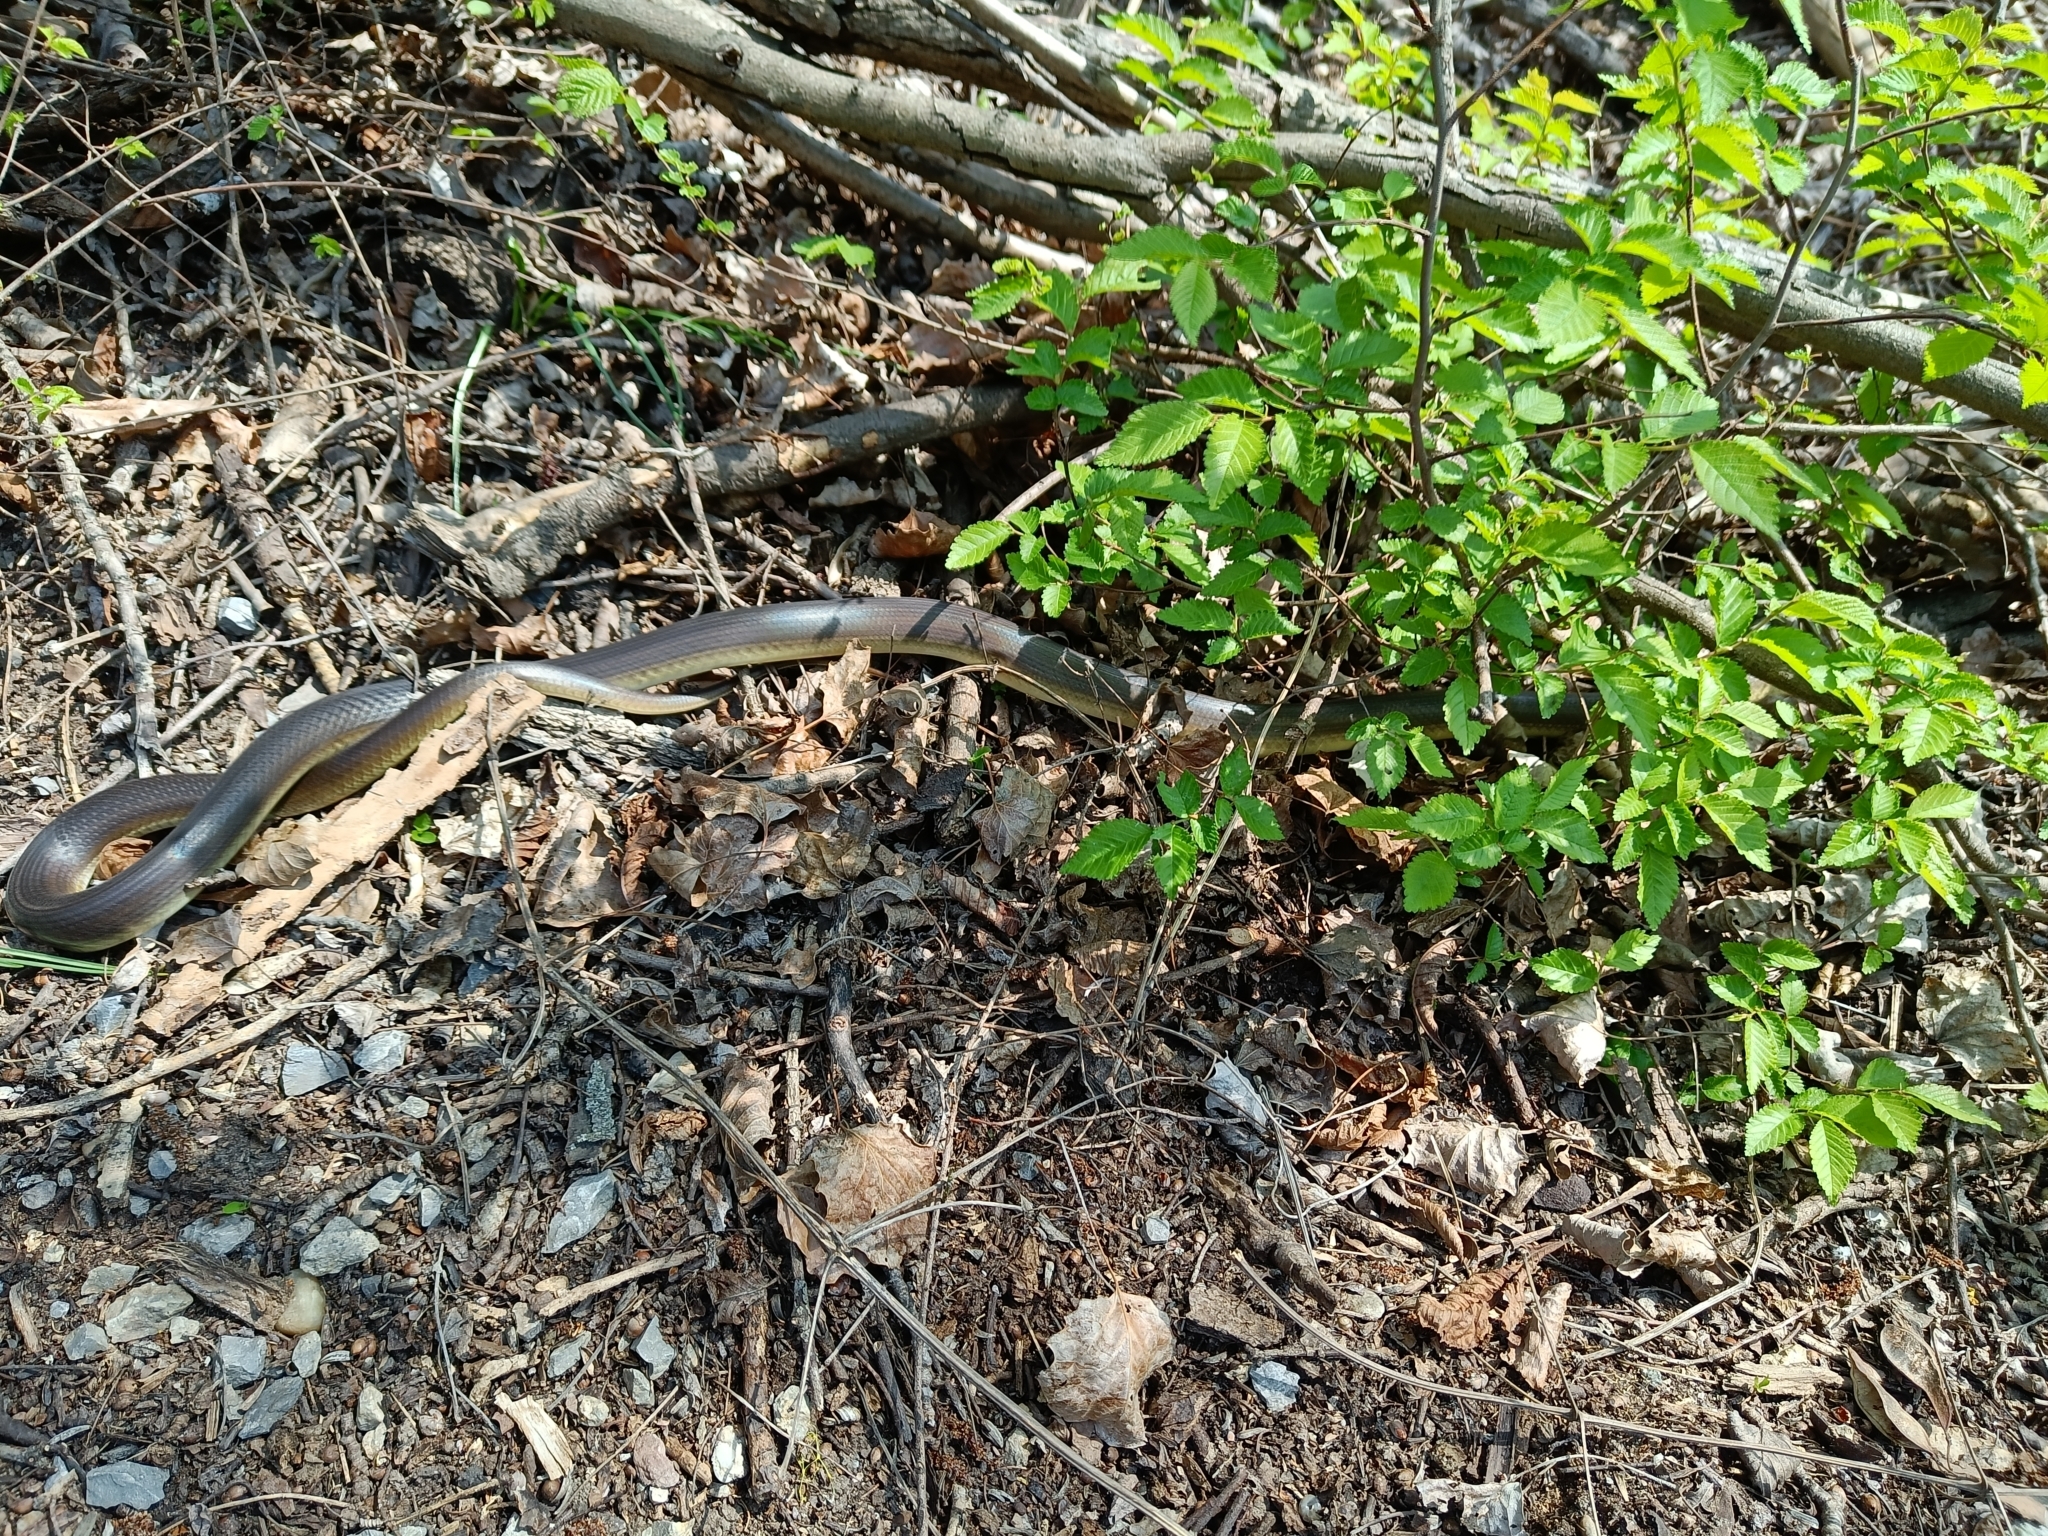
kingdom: Animalia
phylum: Chordata
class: Squamata
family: Colubridae
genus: Zamenis
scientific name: Zamenis longissimus
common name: Aesculapean snake
